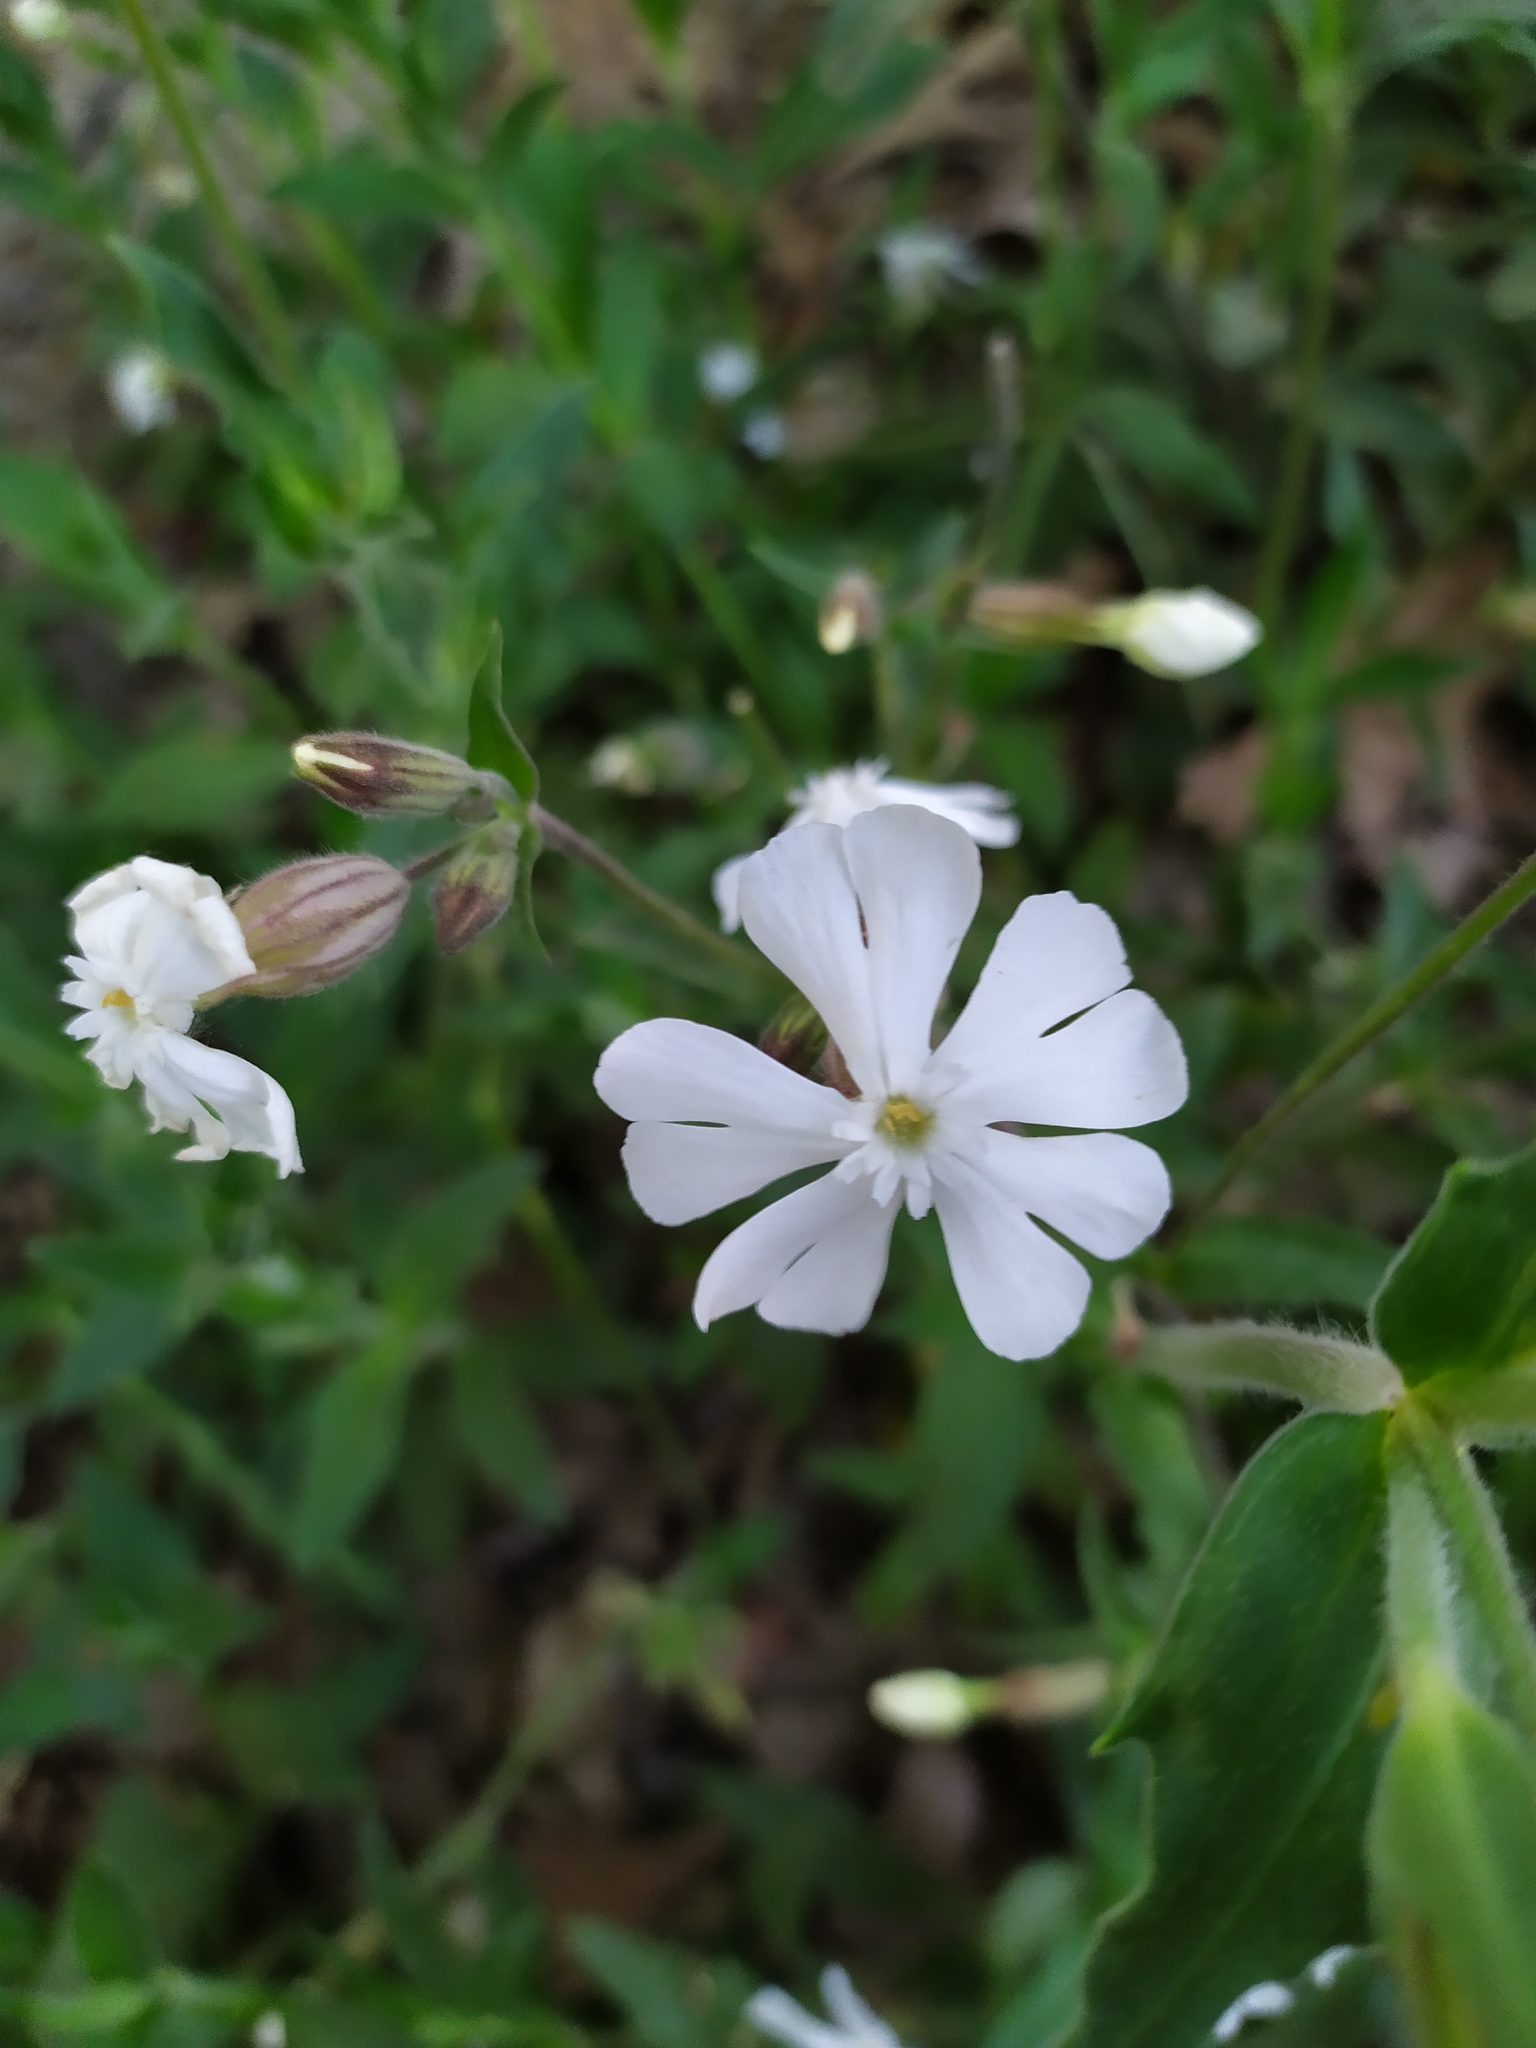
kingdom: Plantae
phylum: Tracheophyta
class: Magnoliopsida
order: Caryophyllales
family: Caryophyllaceae
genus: Silene
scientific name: Silene latifolia
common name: White campion
